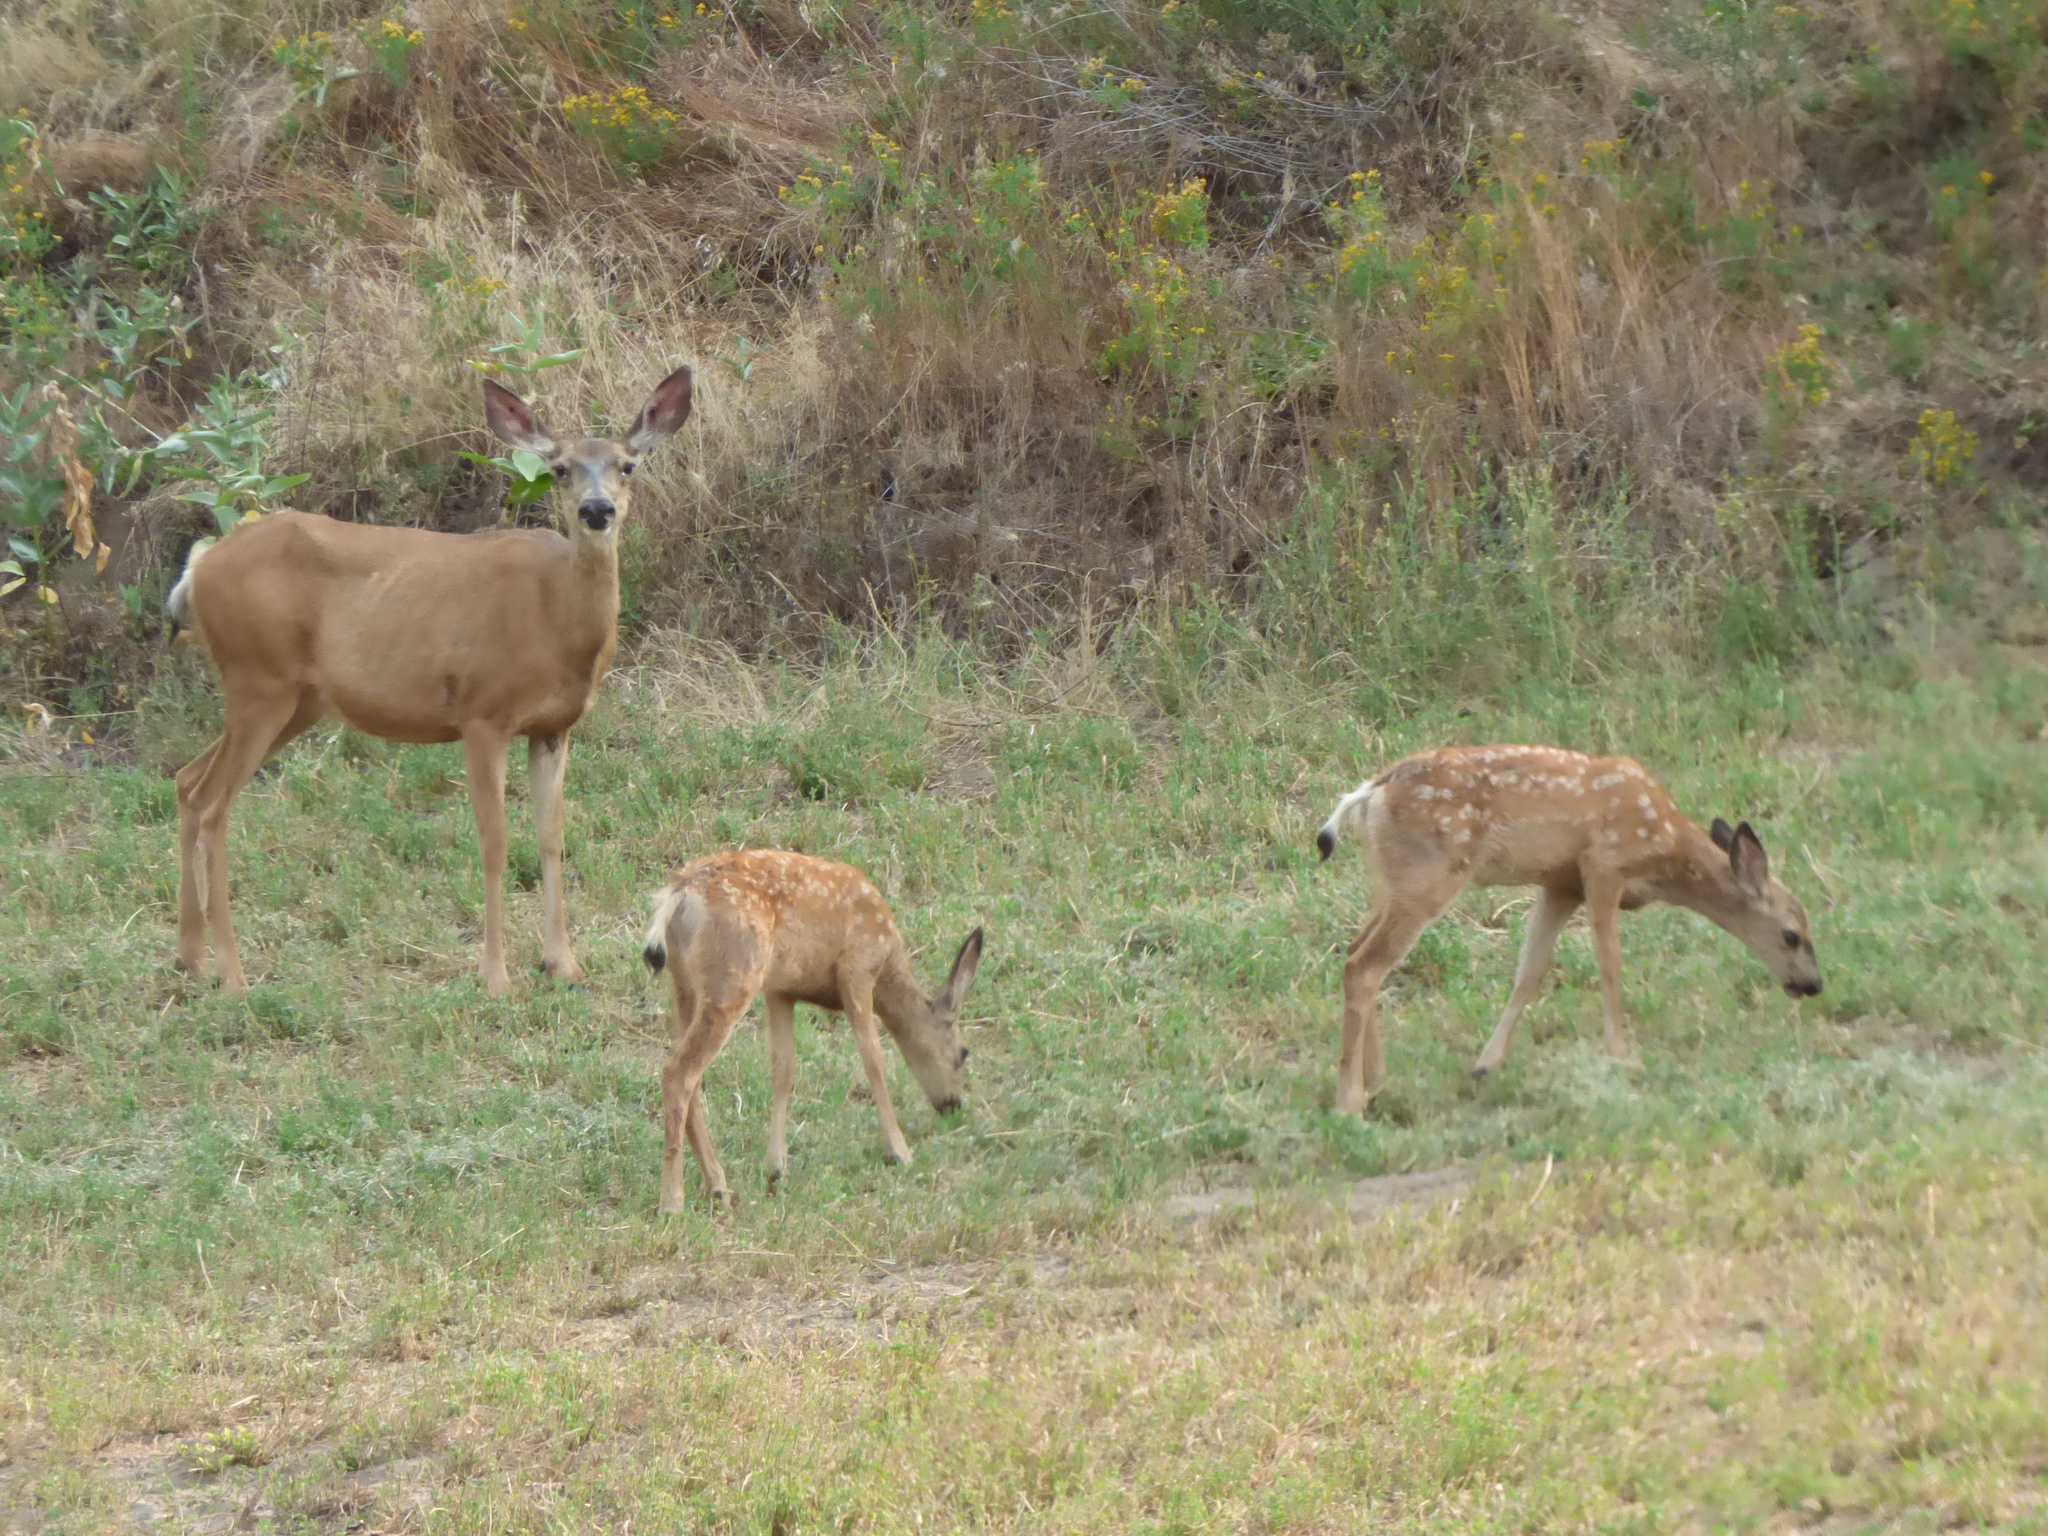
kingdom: Animalia
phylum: Chordata
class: Mammalia
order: Artiodactyla
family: Cervidae
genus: Odocoileus
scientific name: Odocoileus hemionus
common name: Mule deer
